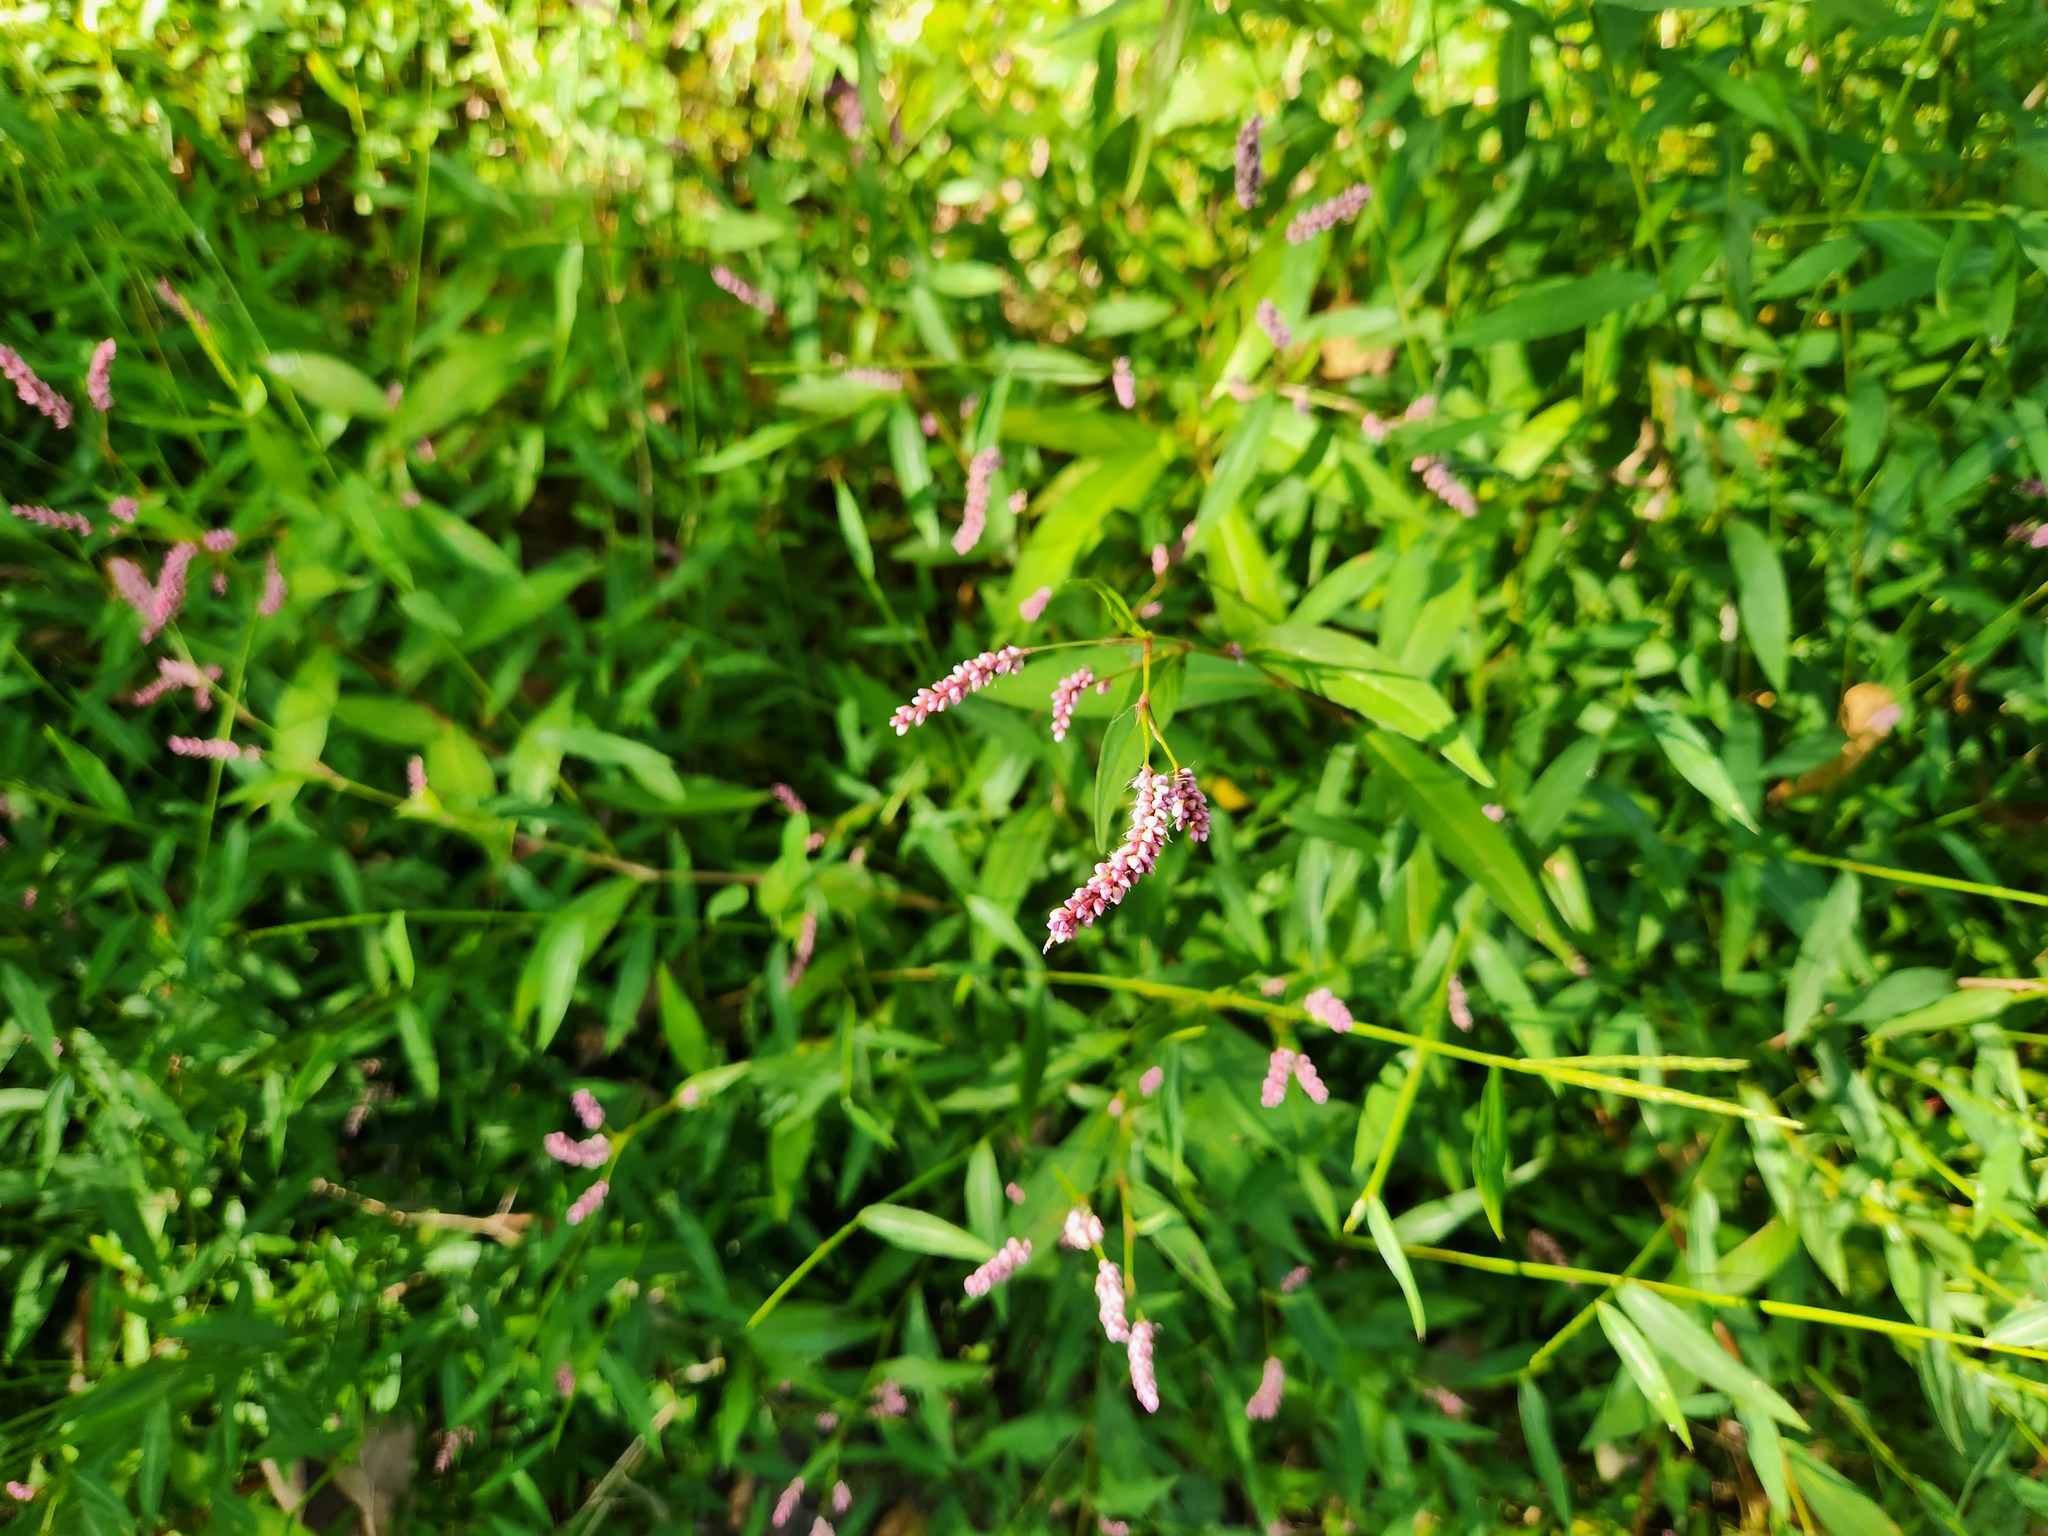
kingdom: Plantae
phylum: Tracheophyta
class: Magnoliopsida
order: Caryophyllales
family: Polygonaceae
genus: Persicaria
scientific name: Persicaria longiseta
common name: Bristly lady's-thumb
